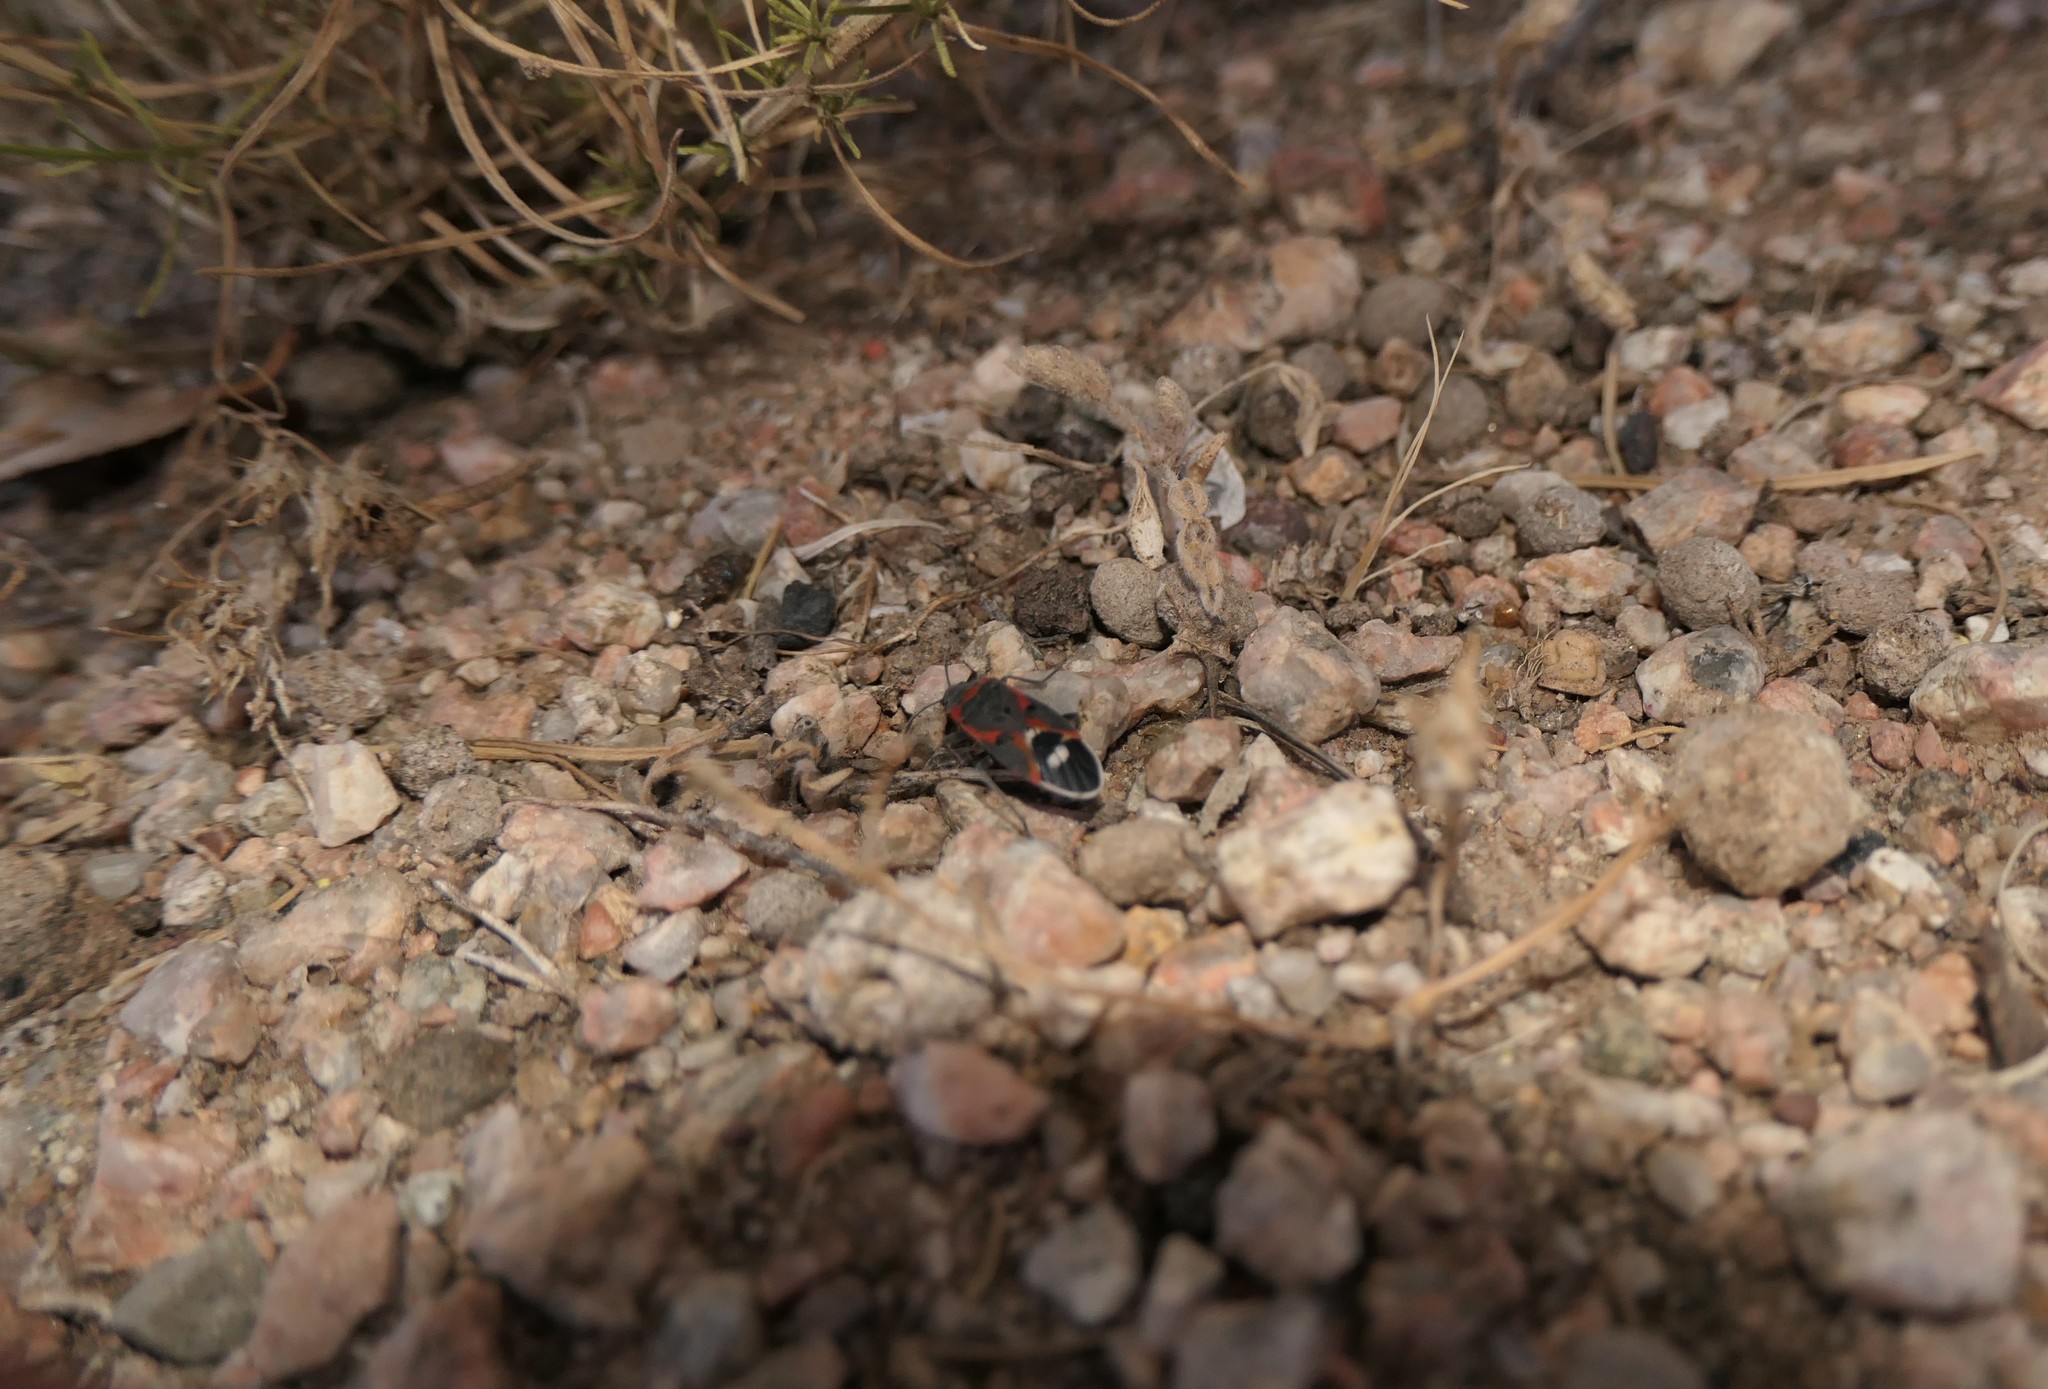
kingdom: Animalia
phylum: Arthropoda
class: Insecta
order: Hemiptera
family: Lygaeidae
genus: Lygaeus
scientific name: Lygaeus kalmii
